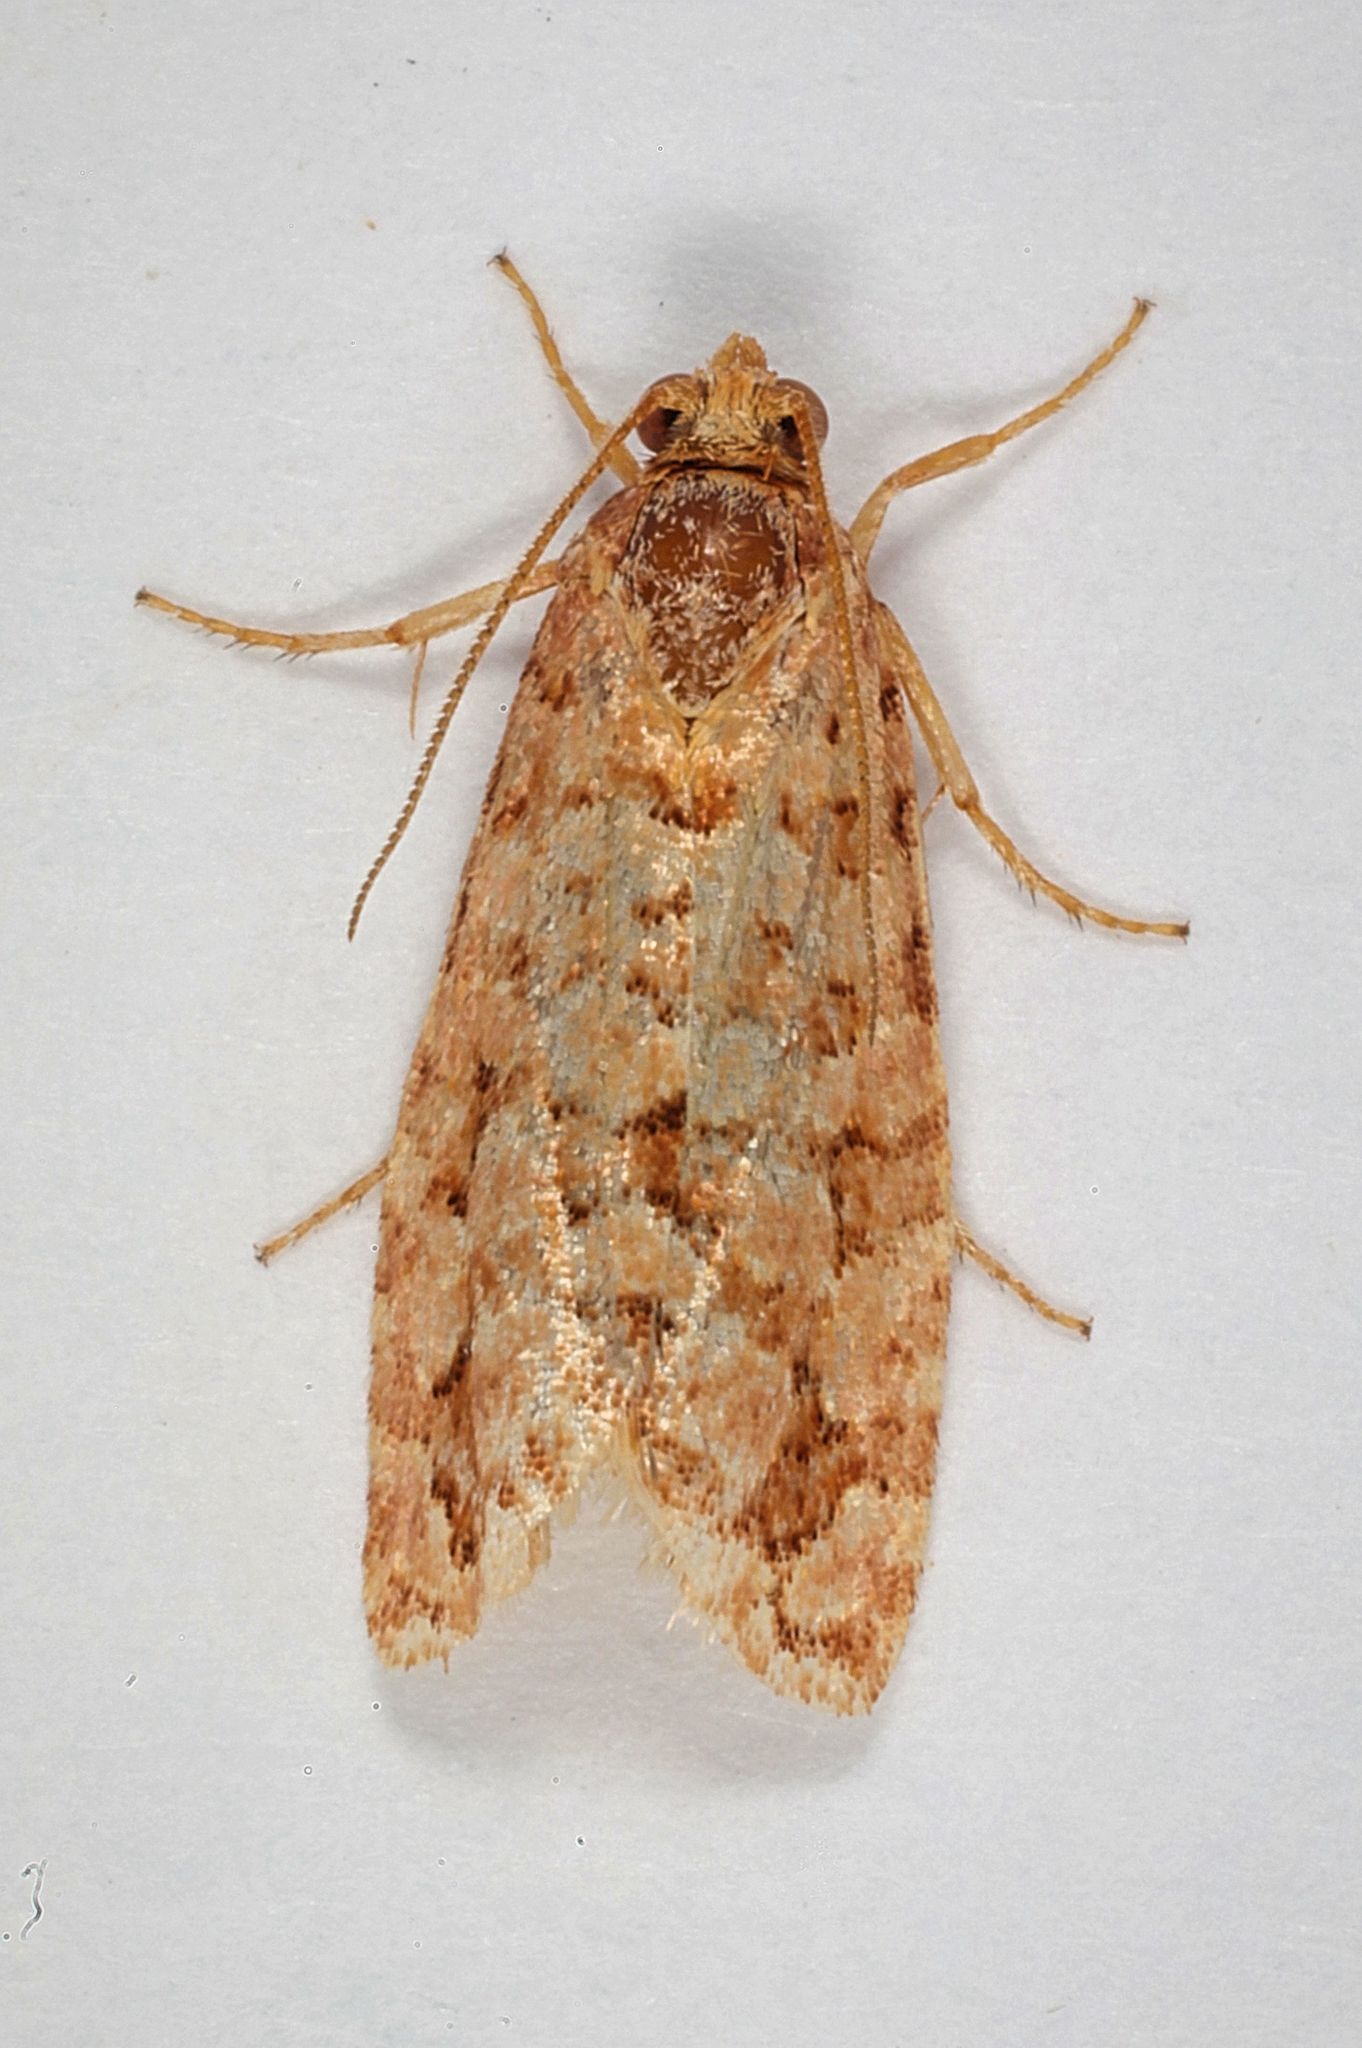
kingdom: Animalia
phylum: Arthropoda
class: Insecta
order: Lepidoptera
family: Tortricidae
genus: Lozotaeniodes
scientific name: Lozotaeniodes formosana
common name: Orange pine twist
